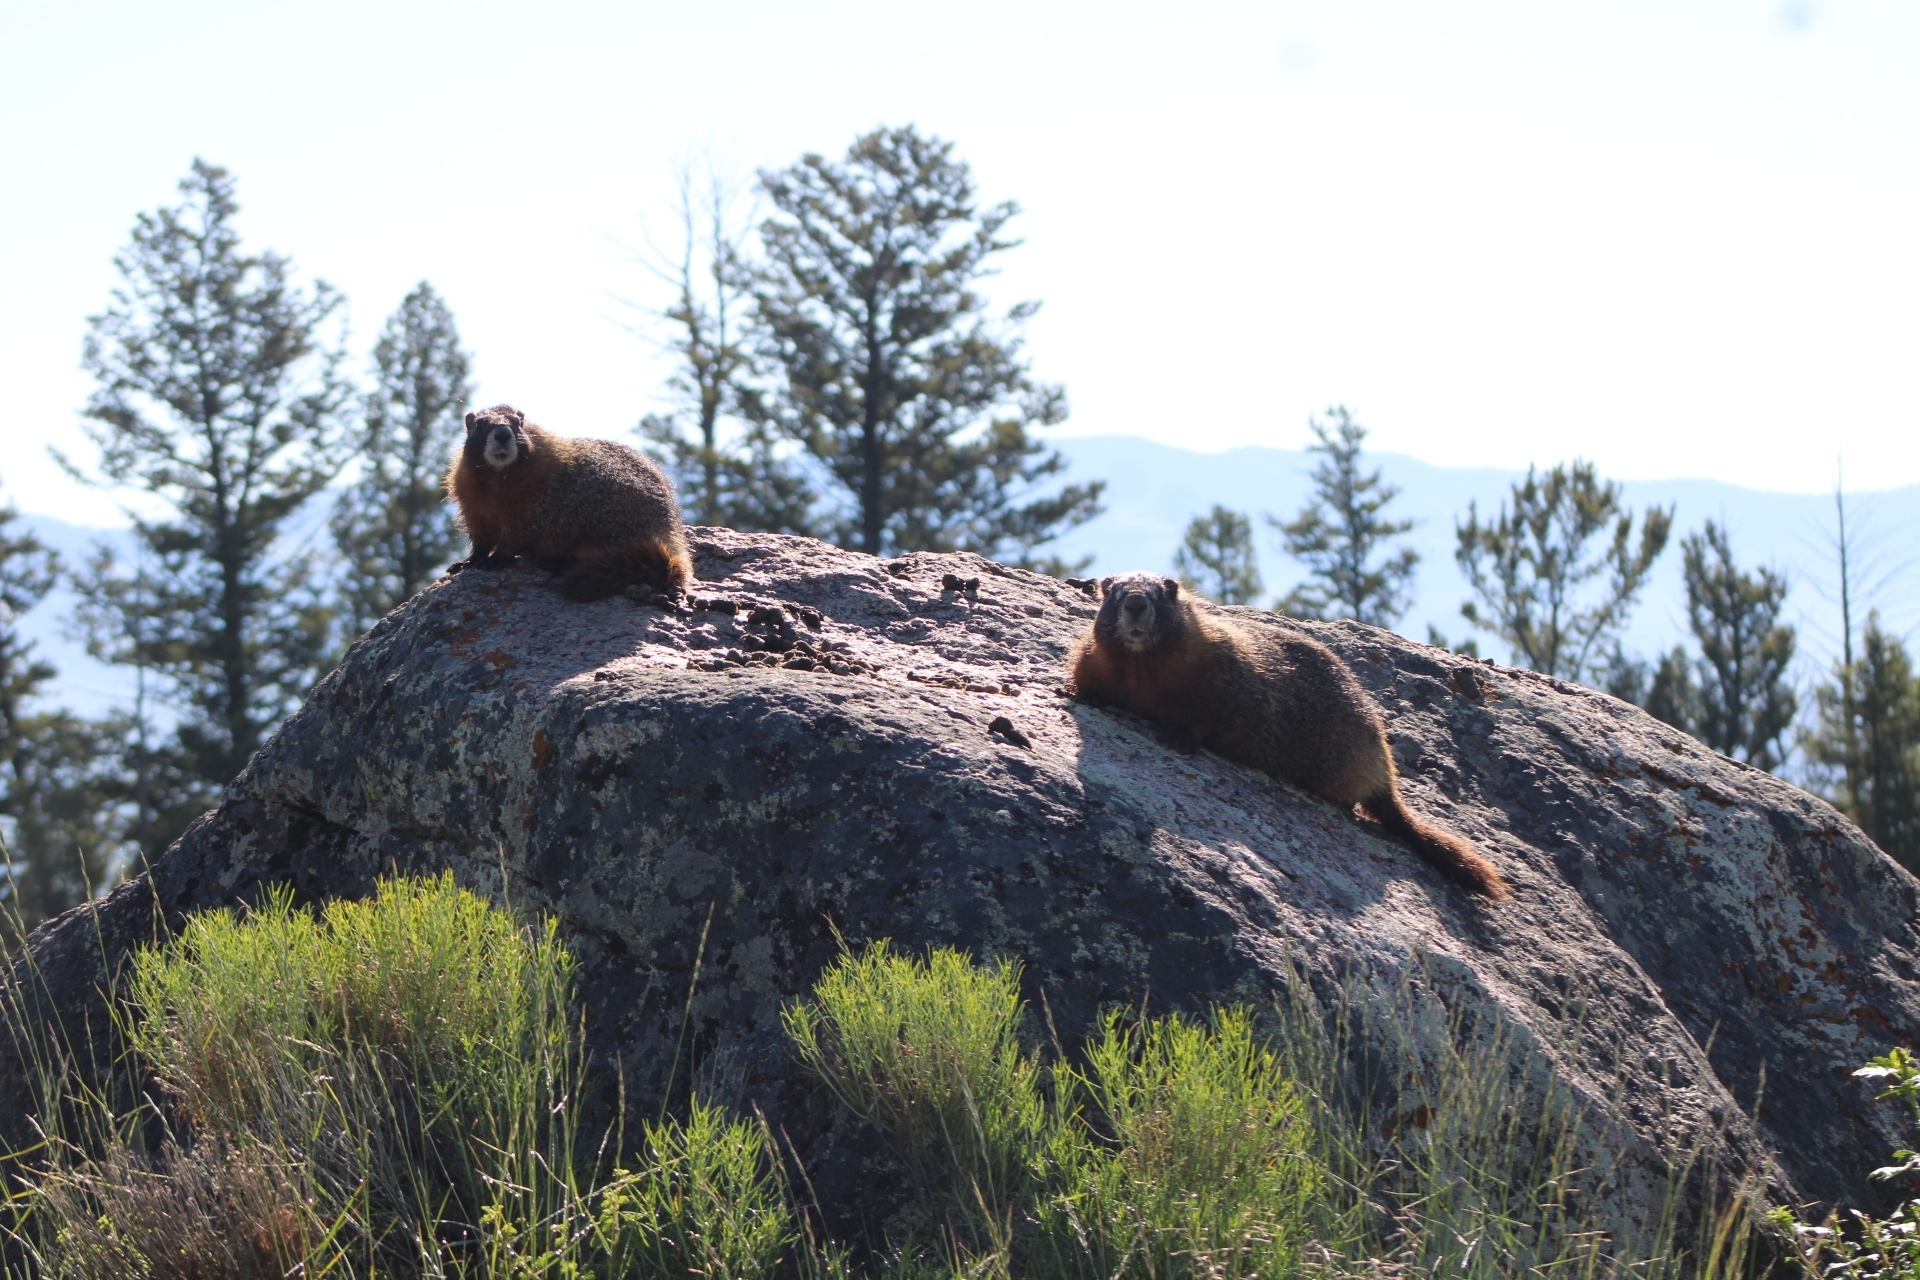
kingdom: Animalia
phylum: Chordata
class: Mammalia
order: Rodentia
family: Sciuridae
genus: Marmota
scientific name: Marmota flaviventris
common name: Yellow-bellied marmot
